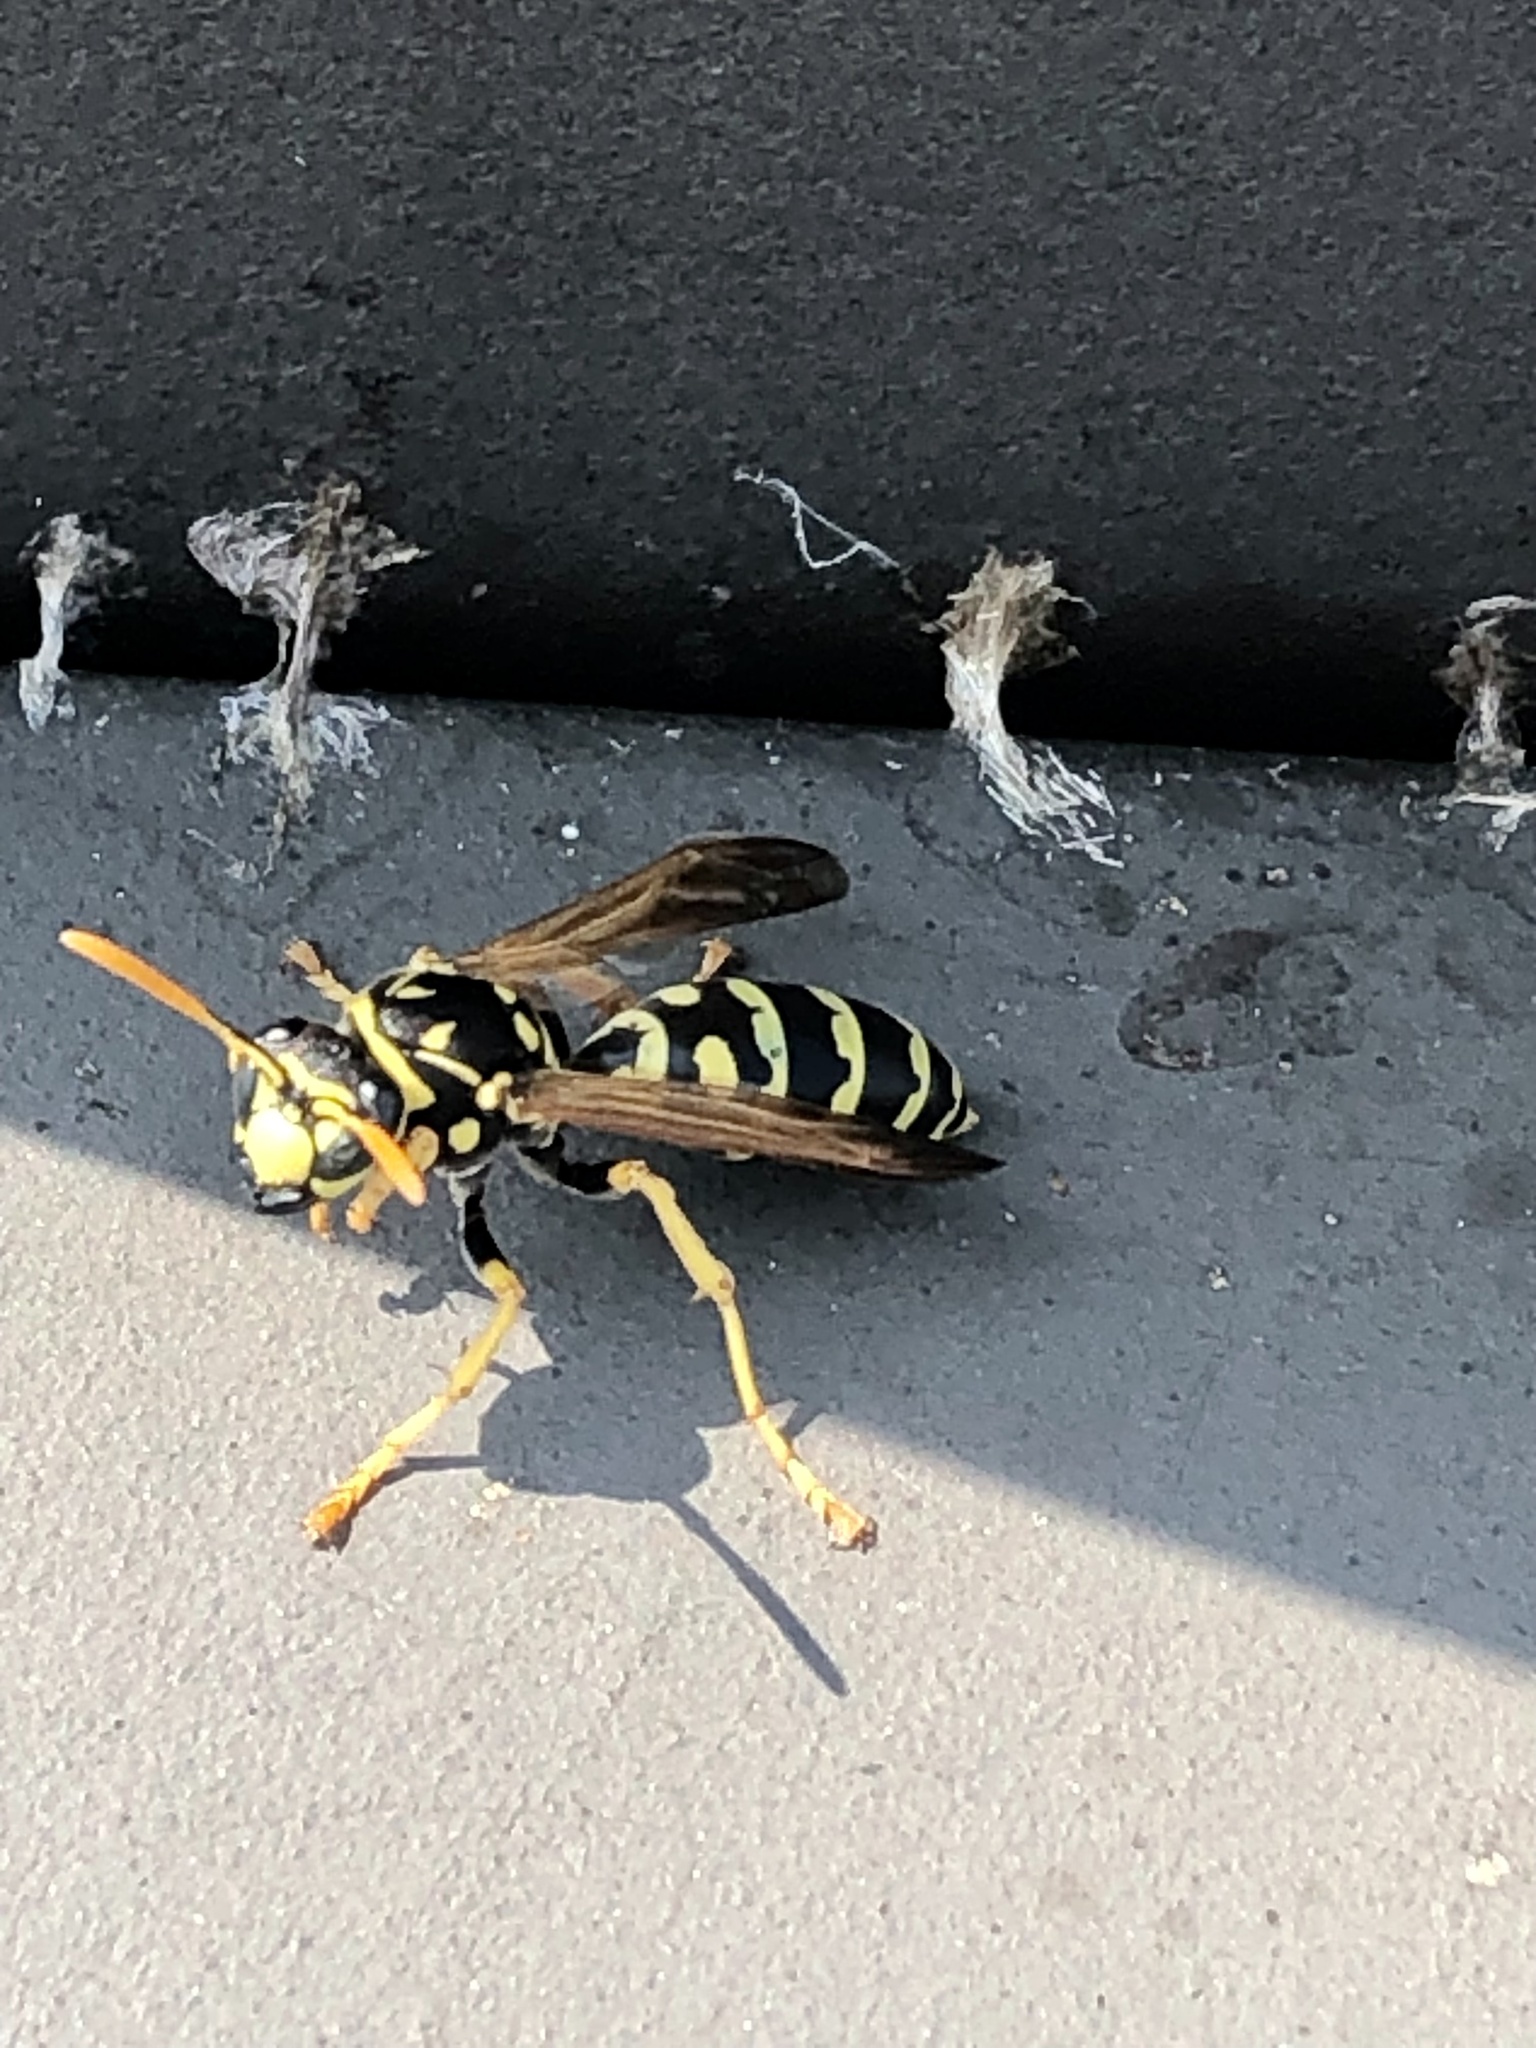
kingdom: Animalia
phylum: Arthropoda
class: Insecta
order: Hymenoptera
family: Eumenidae
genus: Polistes
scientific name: Polistes dominula
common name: Paper wasp
